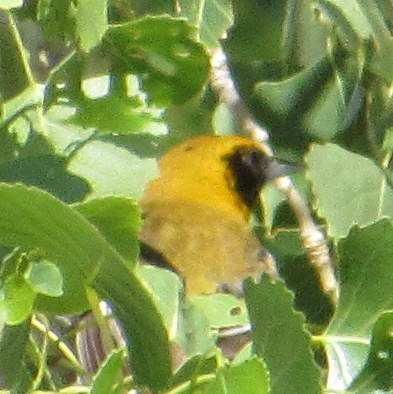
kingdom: Animalia
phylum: Chordata
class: Aves
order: Passeriformes
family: Icteridae
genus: Icterus
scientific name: Icterus bullockii
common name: Bullock's oriole
